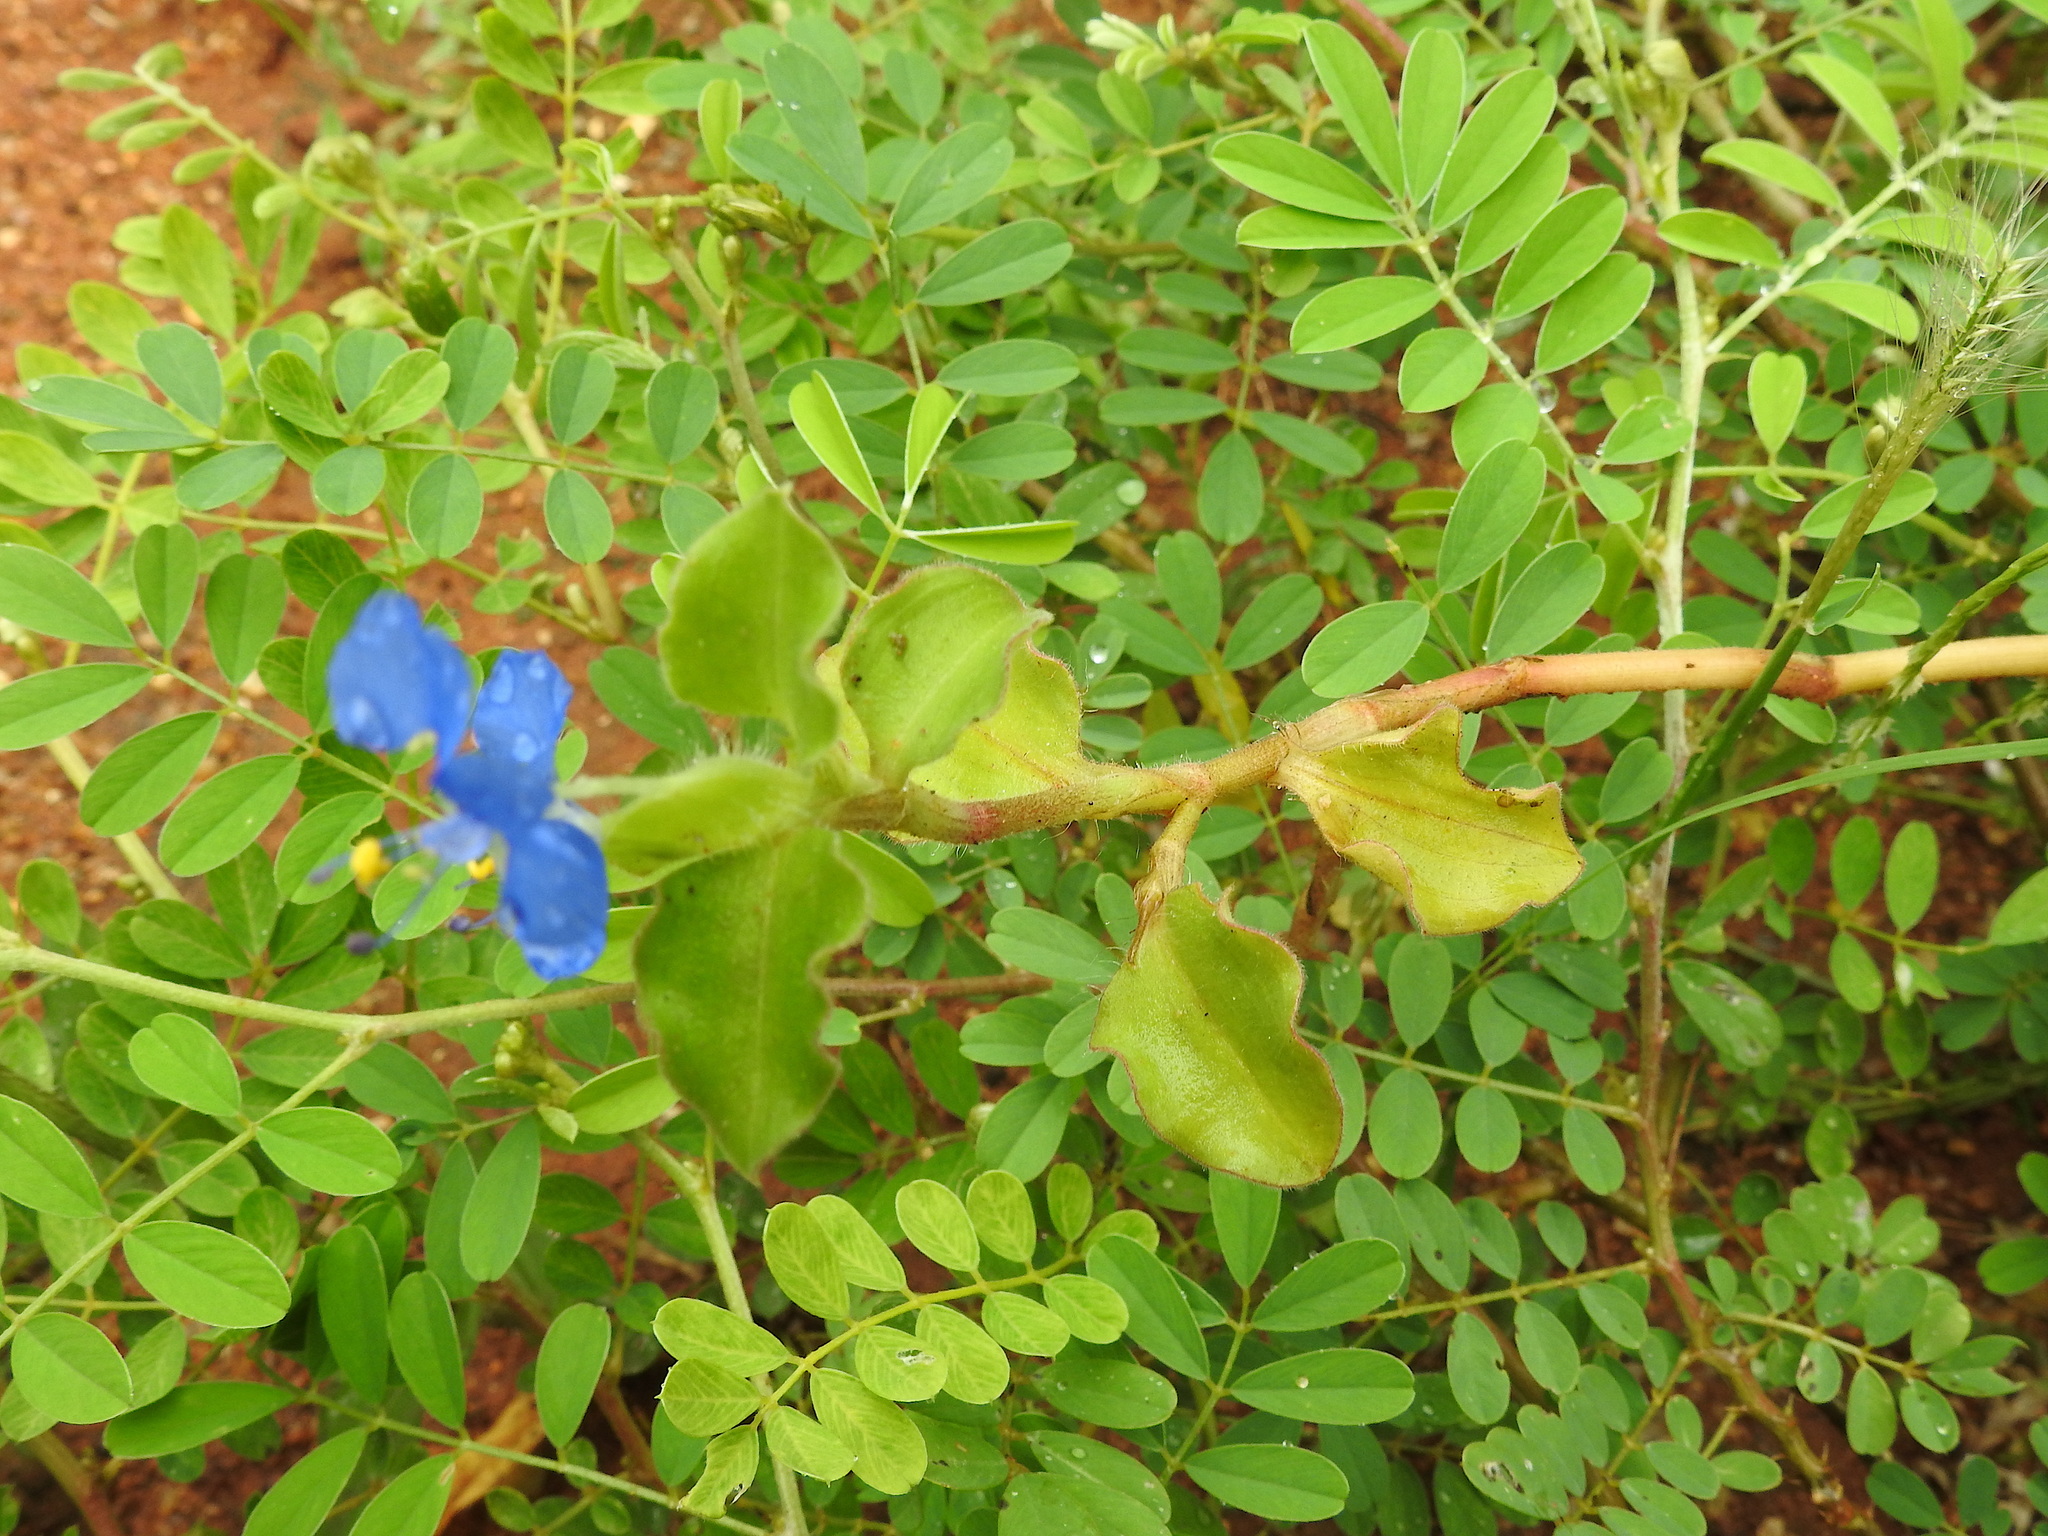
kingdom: Plantae
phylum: Tracheophyta
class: Liliopsida
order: Commelinales
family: Commelinaceae
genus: Commelina
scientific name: Commelina benghalensis
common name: Jio
